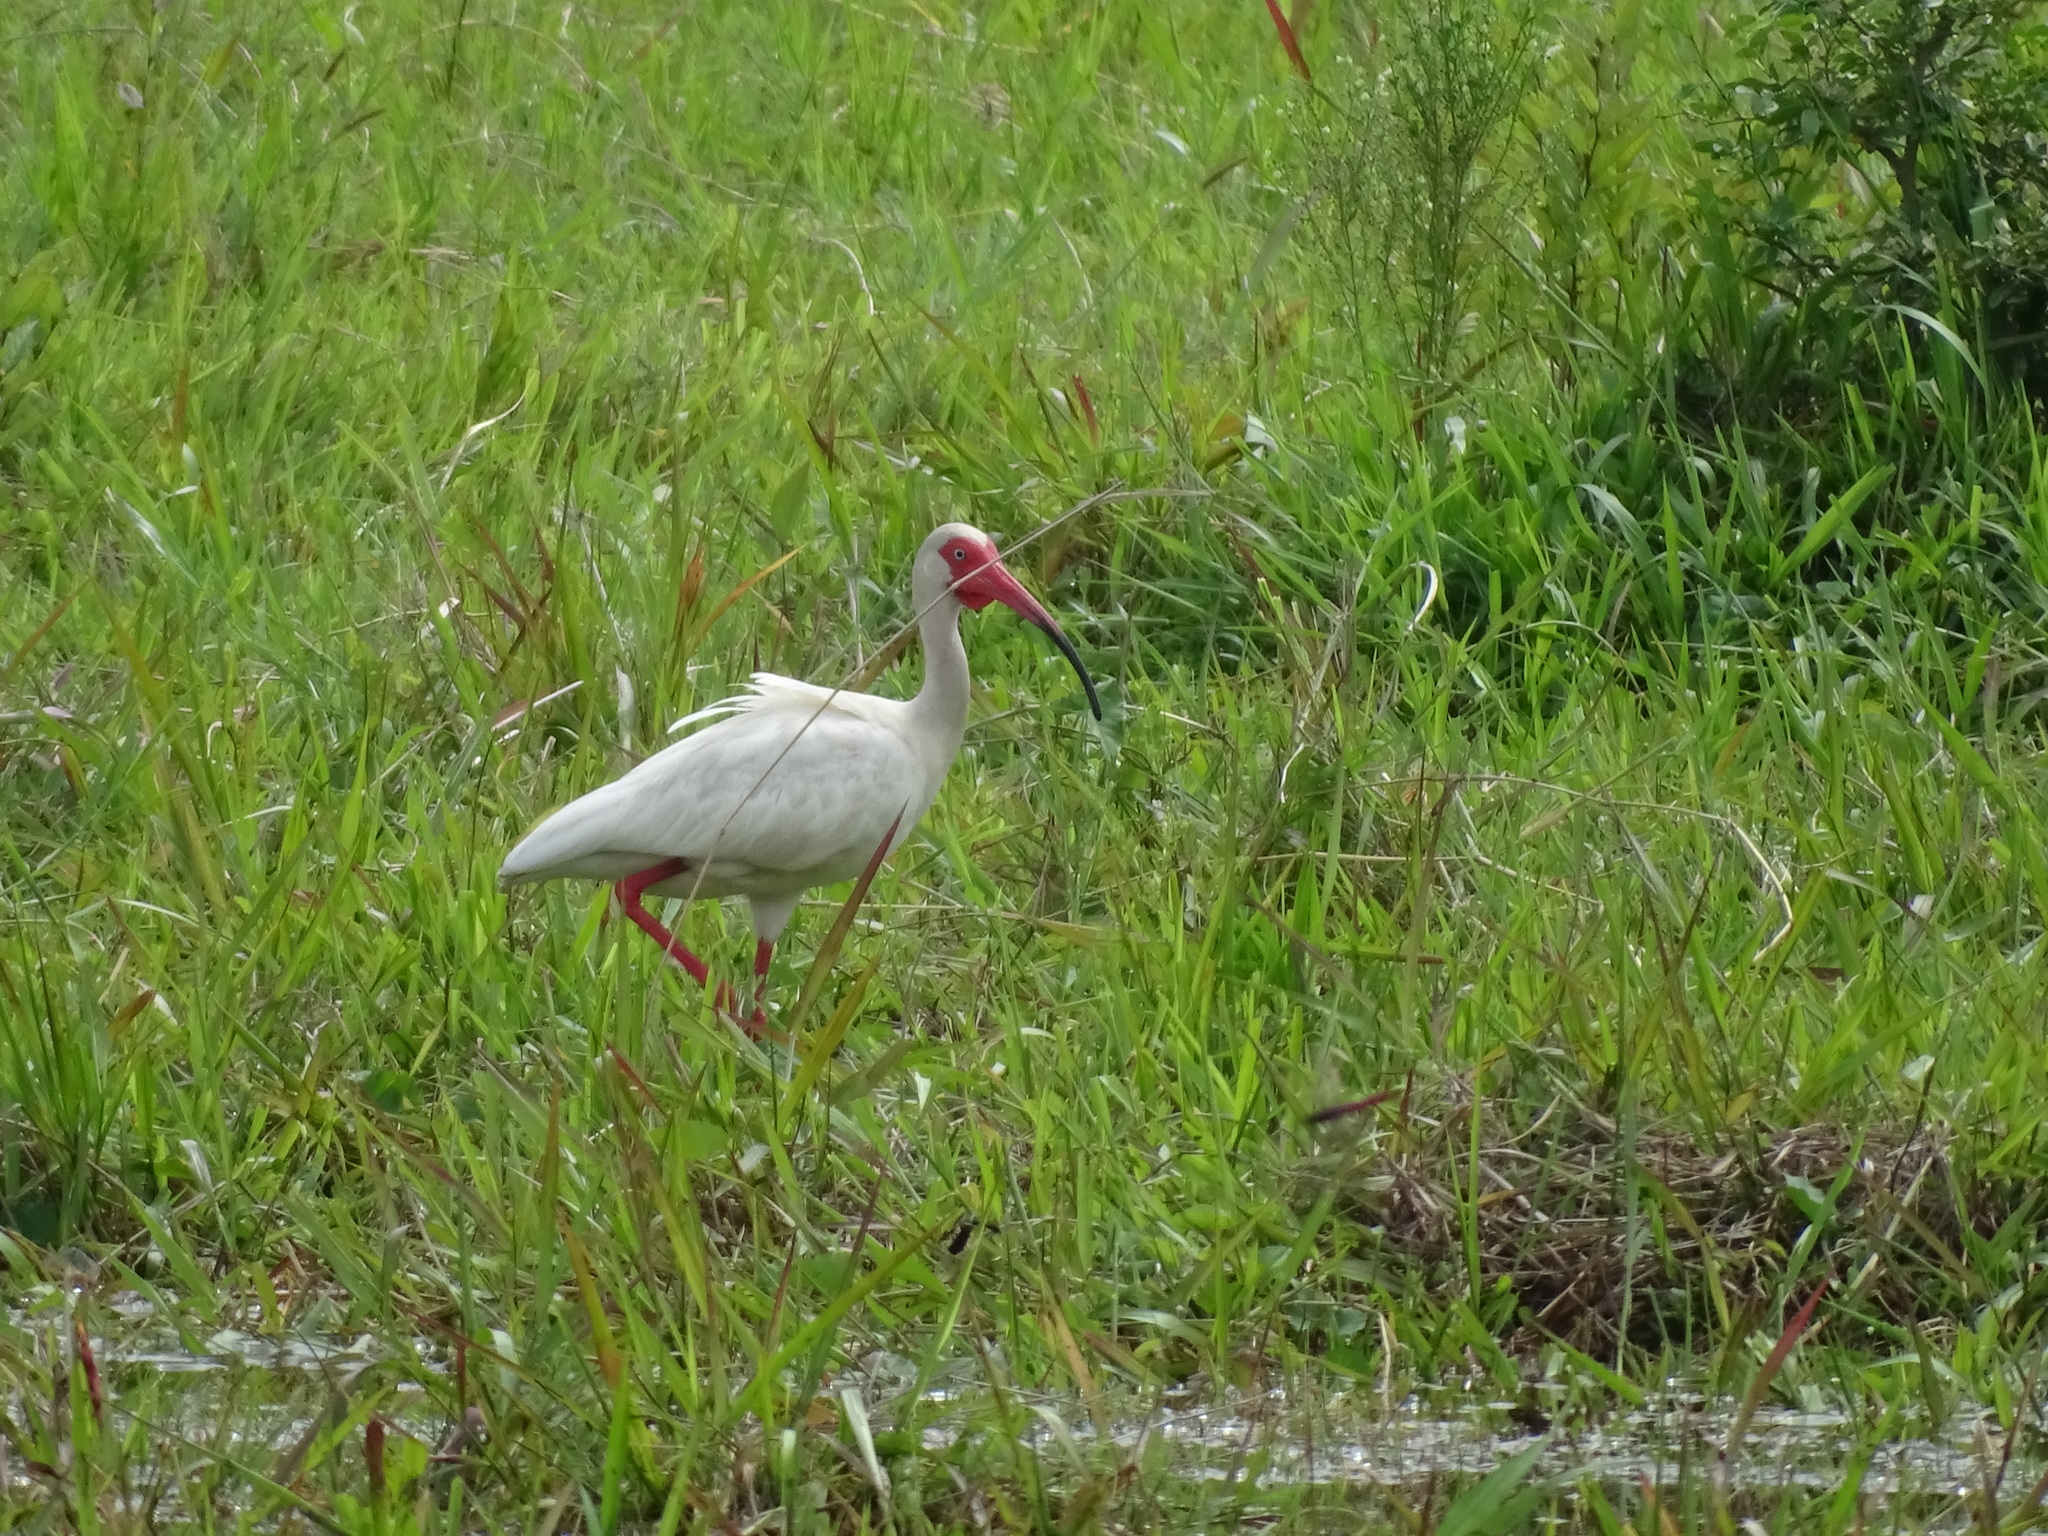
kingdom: Animalia
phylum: Chordata
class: Aves
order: Pelecaniformes
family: Threskiornithidae
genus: Eudocimus
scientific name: Eudocimus albus
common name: White ibis
